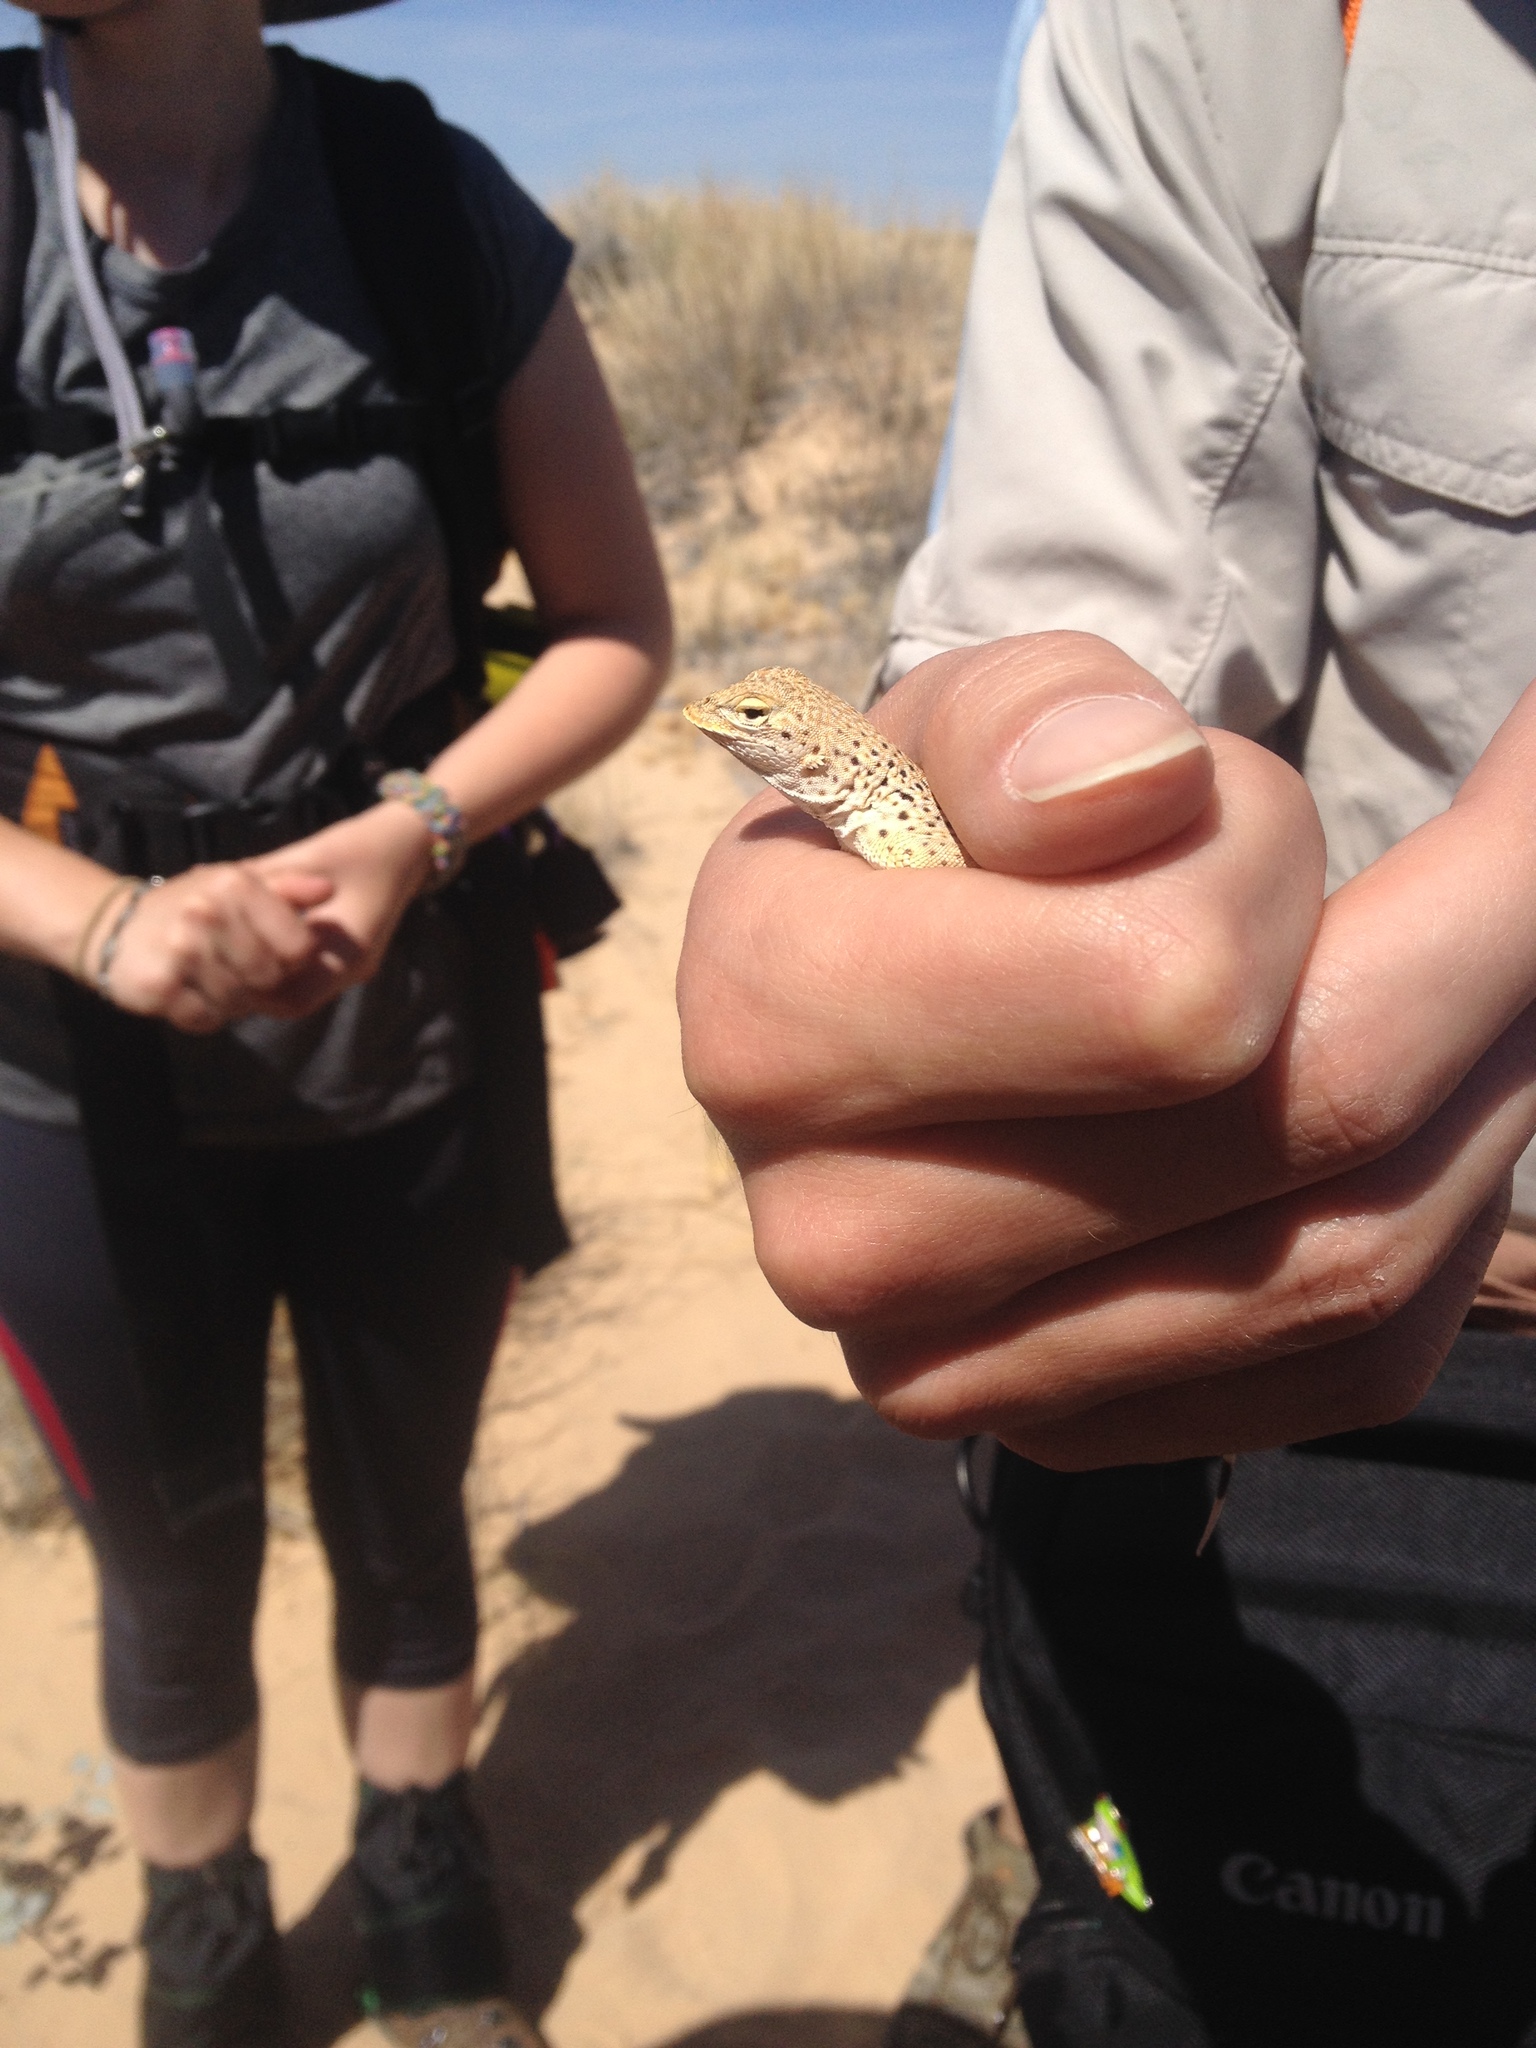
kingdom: Animalia
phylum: Chordata
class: Squamata
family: Phrynosomatidae
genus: Uma
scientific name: Uma scoparia
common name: Mojave fringe-toed lizard
